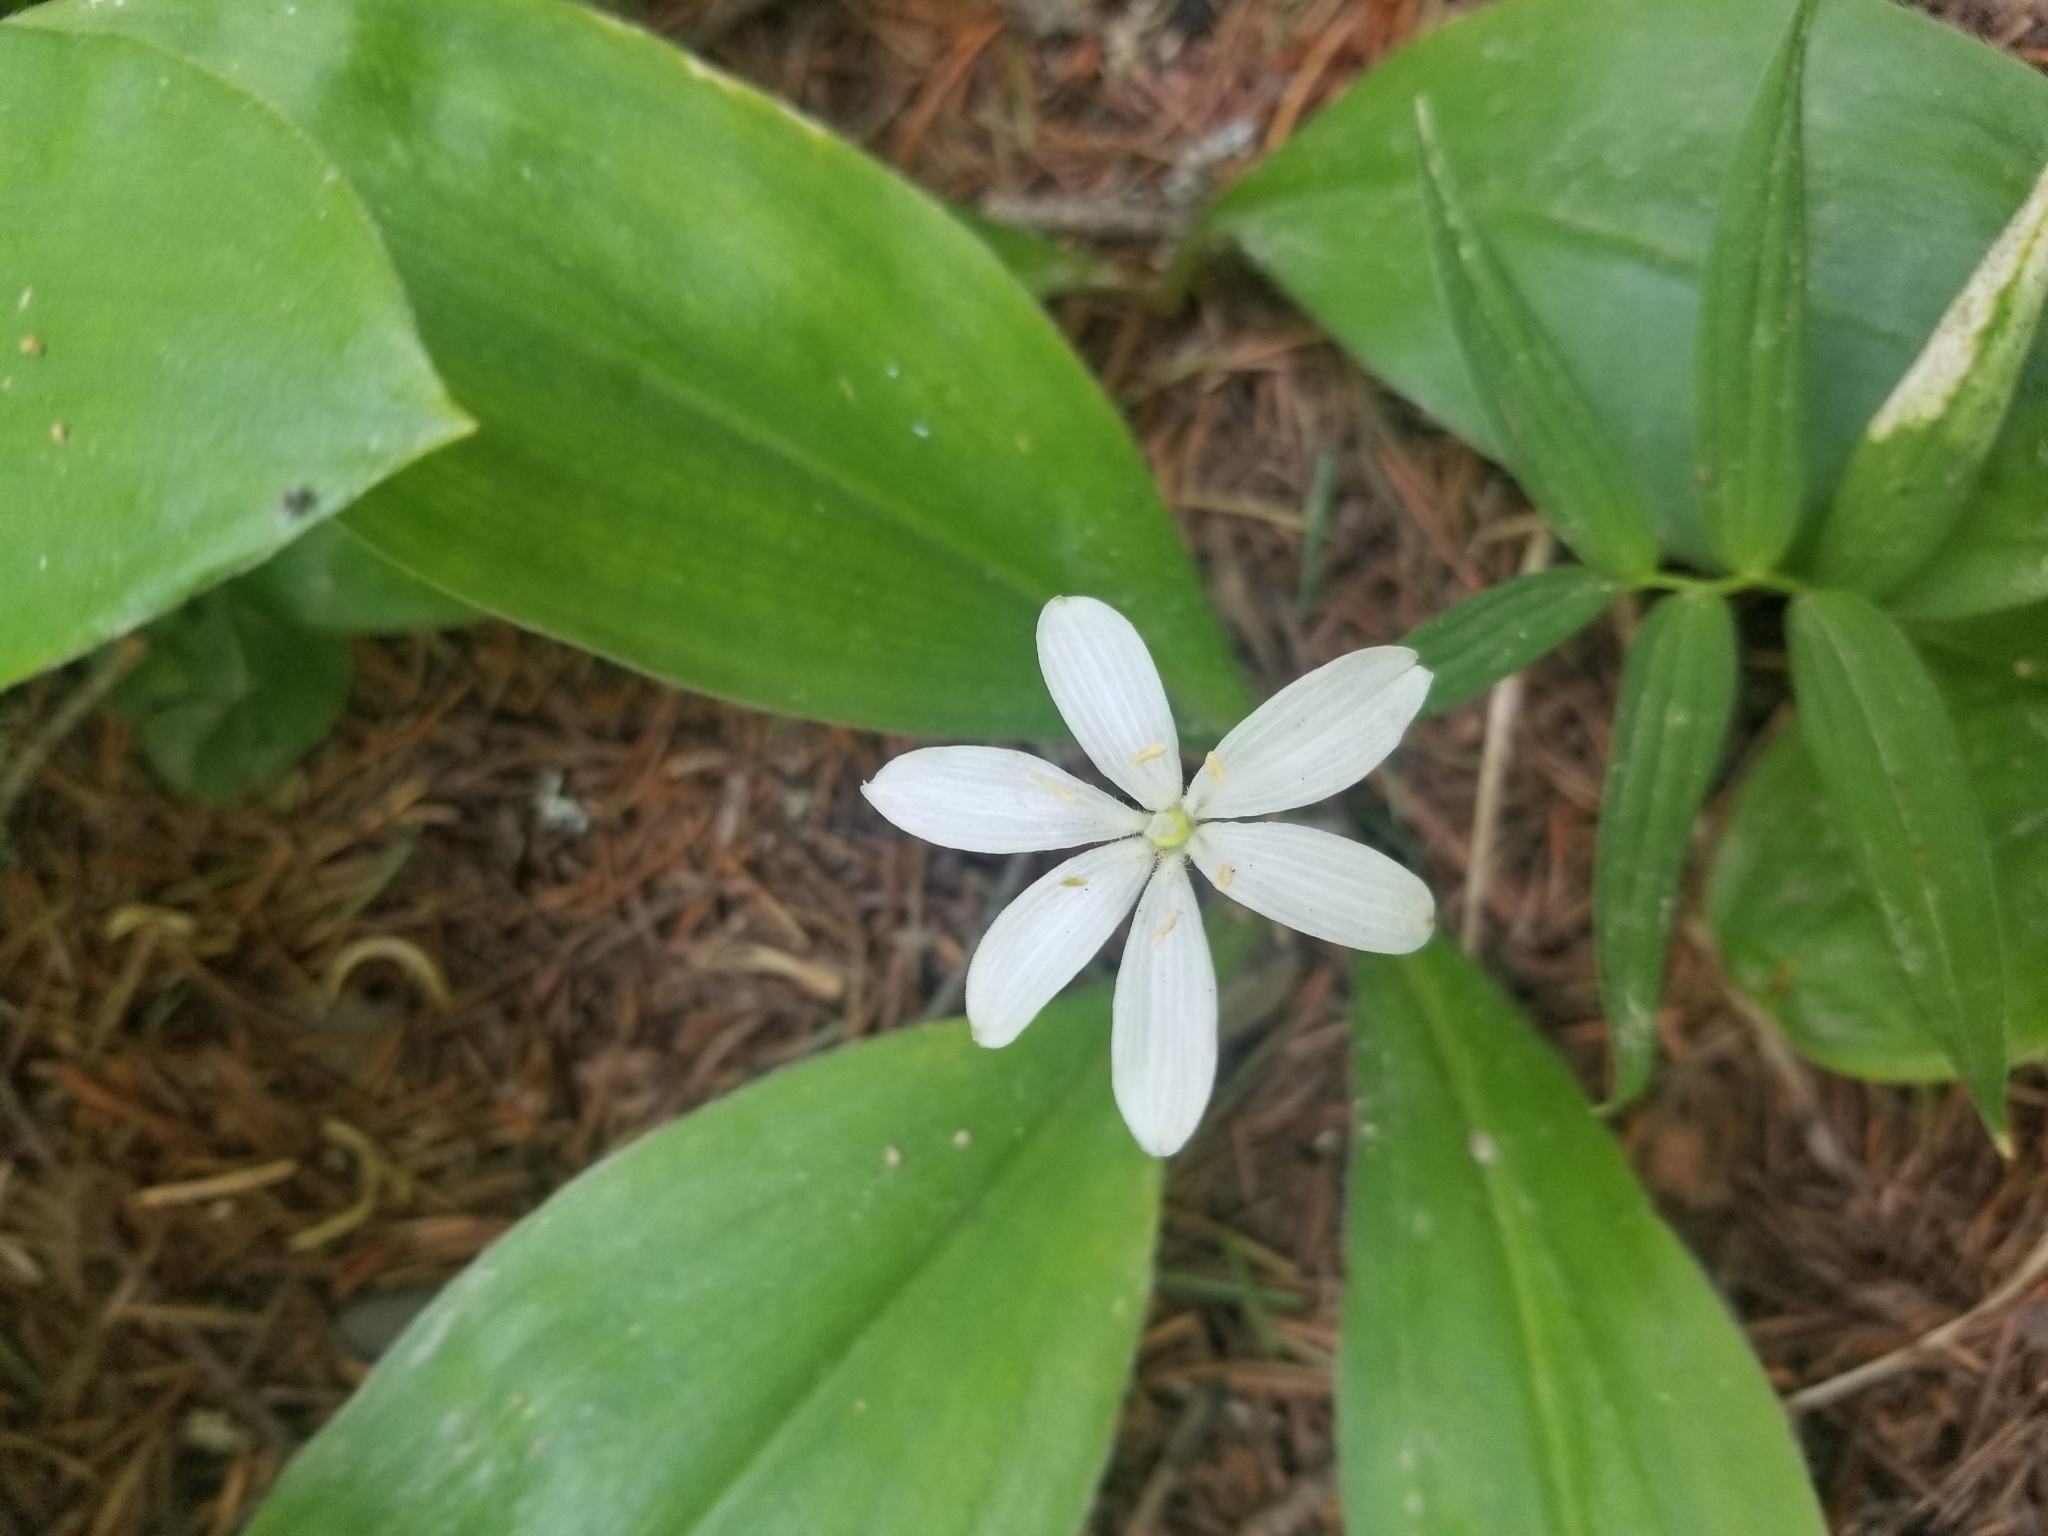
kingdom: Plantae
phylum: Tracheophyta
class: Liliopsida
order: Liliales
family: Liliaceae
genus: Clintonia
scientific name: Clintonia uniflora
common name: Queen's cup
